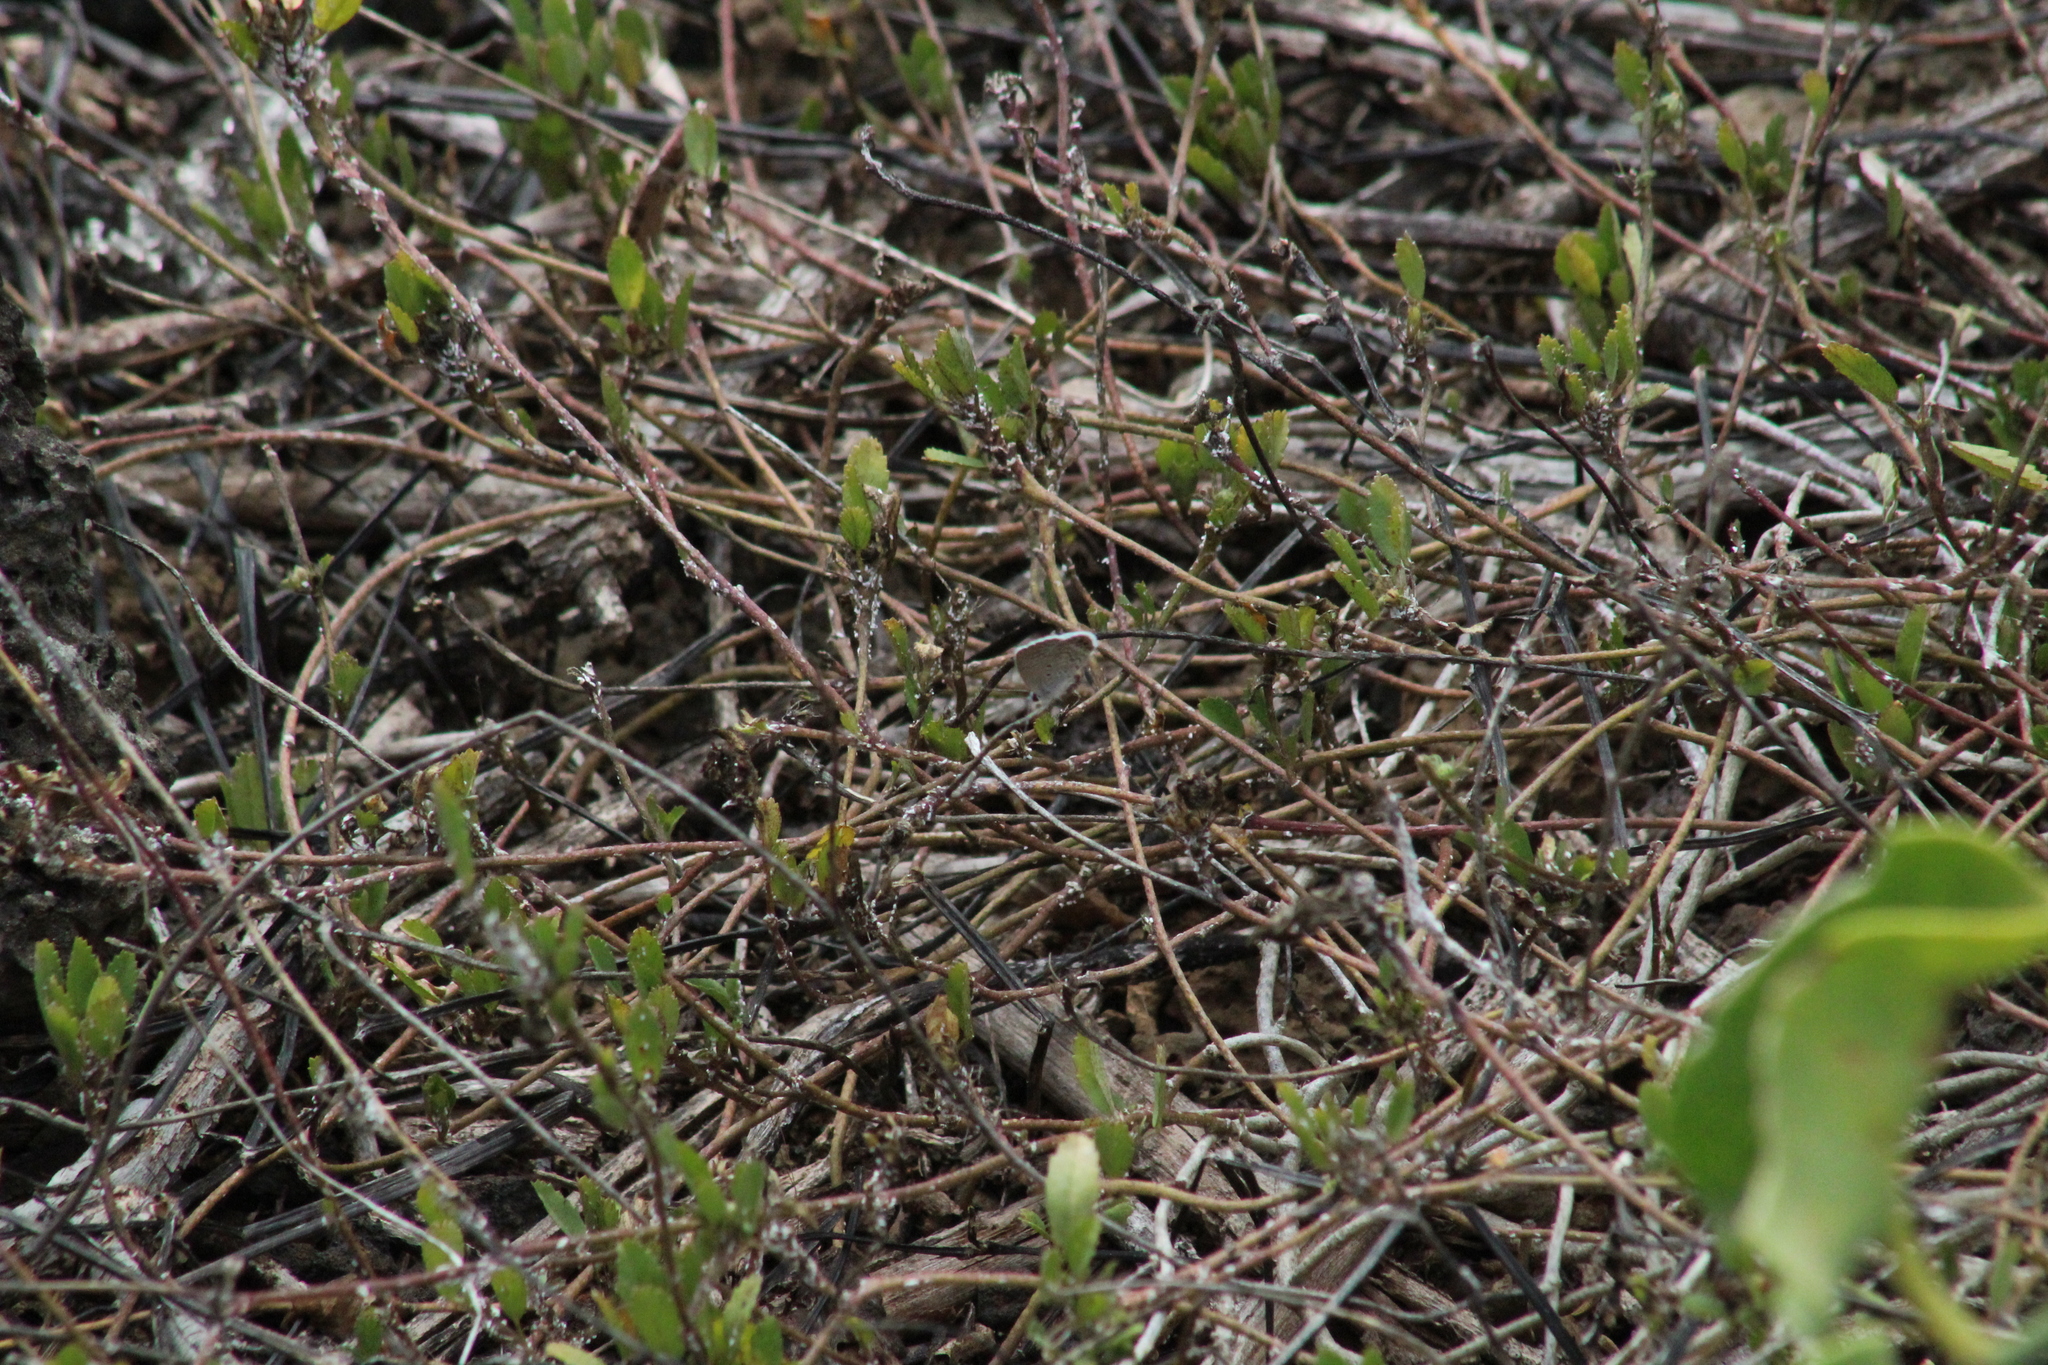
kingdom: Animalia
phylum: Arthropoda
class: Insecta
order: Lepidoptera
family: Lycaenidae
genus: Hemiargus
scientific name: Hemiargus ramon
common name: Ramon blue
